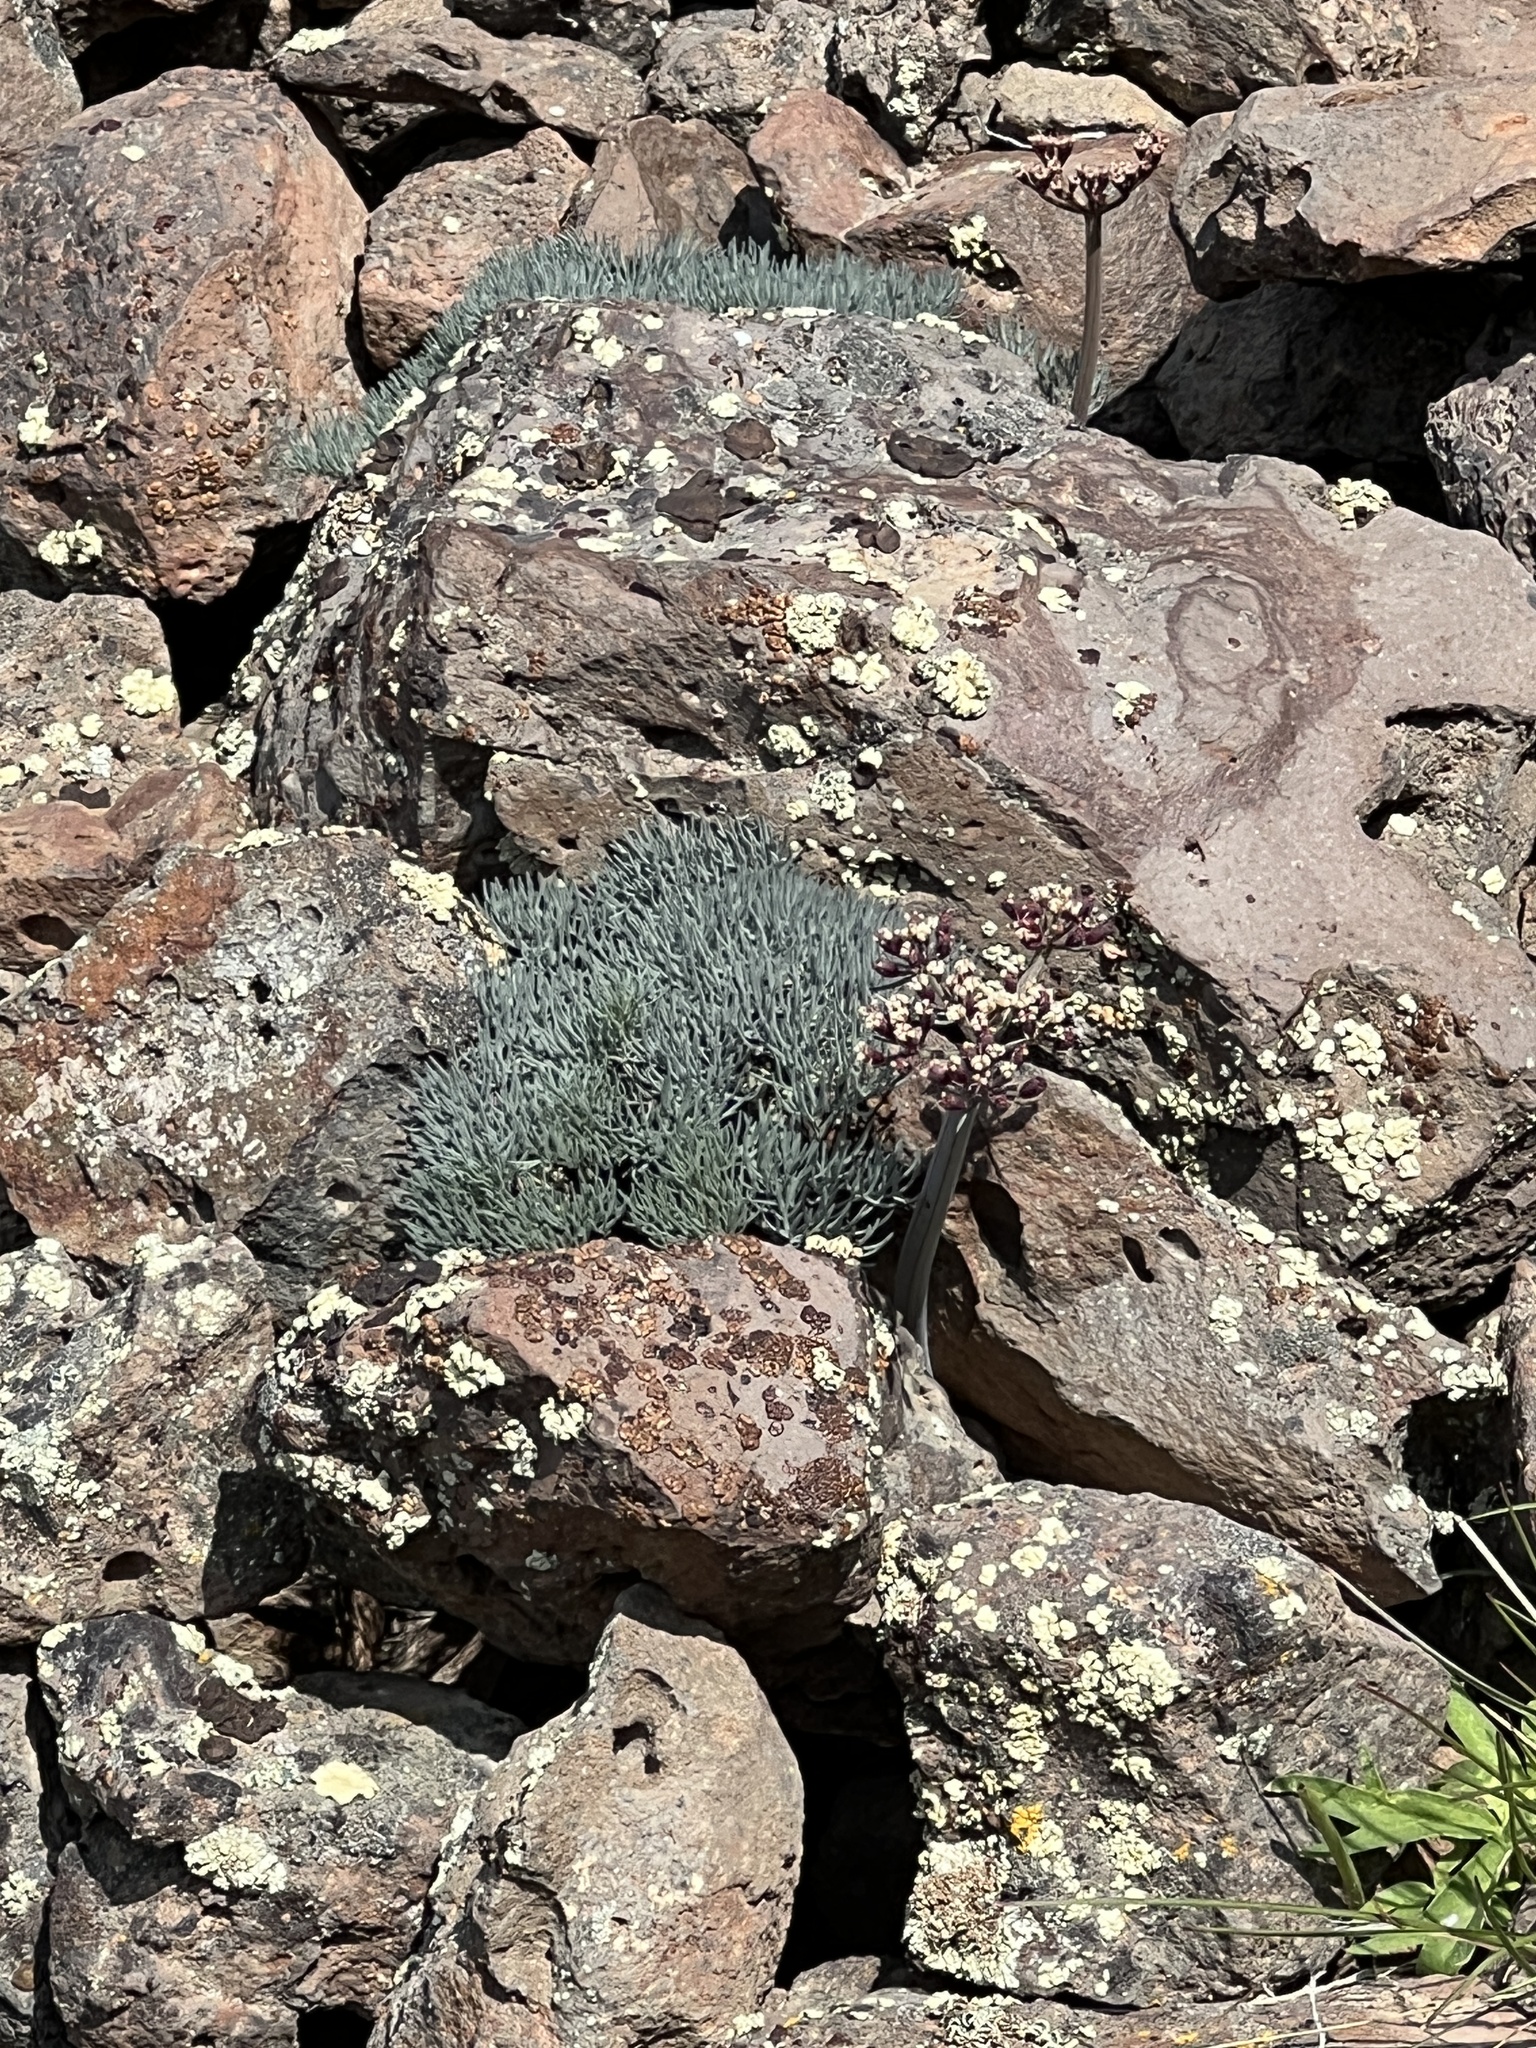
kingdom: Plantae
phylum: Tracheophyta
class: Magnoliopsida
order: Apiales
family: Apiaceae
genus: Lomatium
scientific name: Lomatium tuberosum
